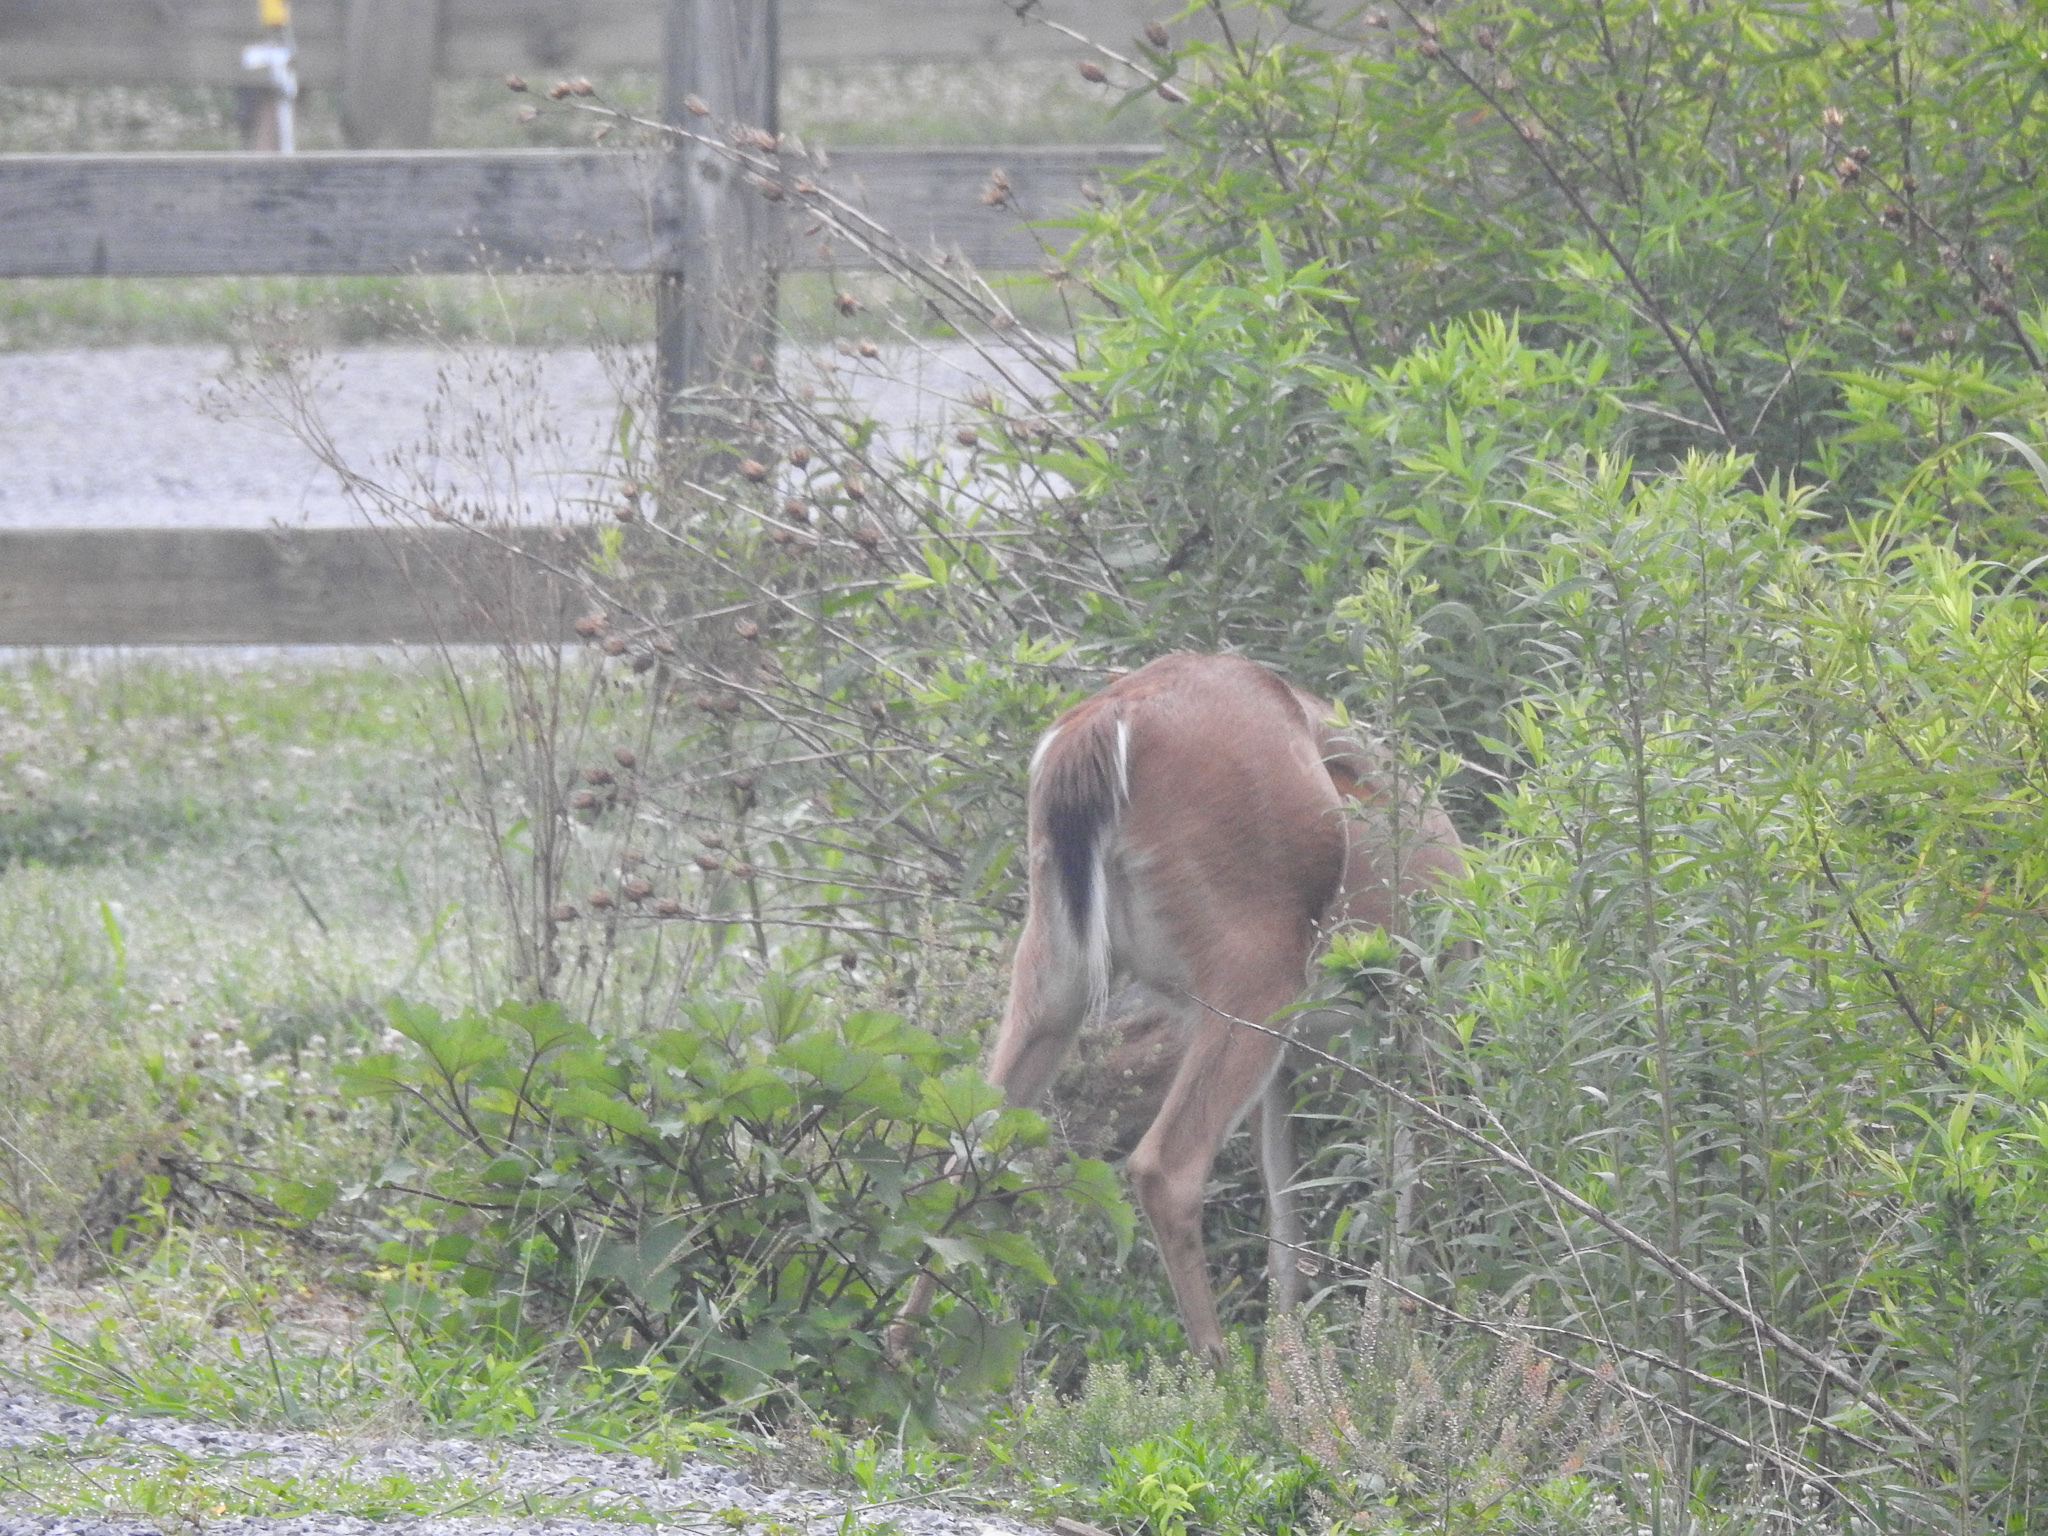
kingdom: Animalia
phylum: Chordata
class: Mammalia
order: Artiodactyla
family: Cervidae
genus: Odocoileus
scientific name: Odocoileus virginianus
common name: White-tailed deer
